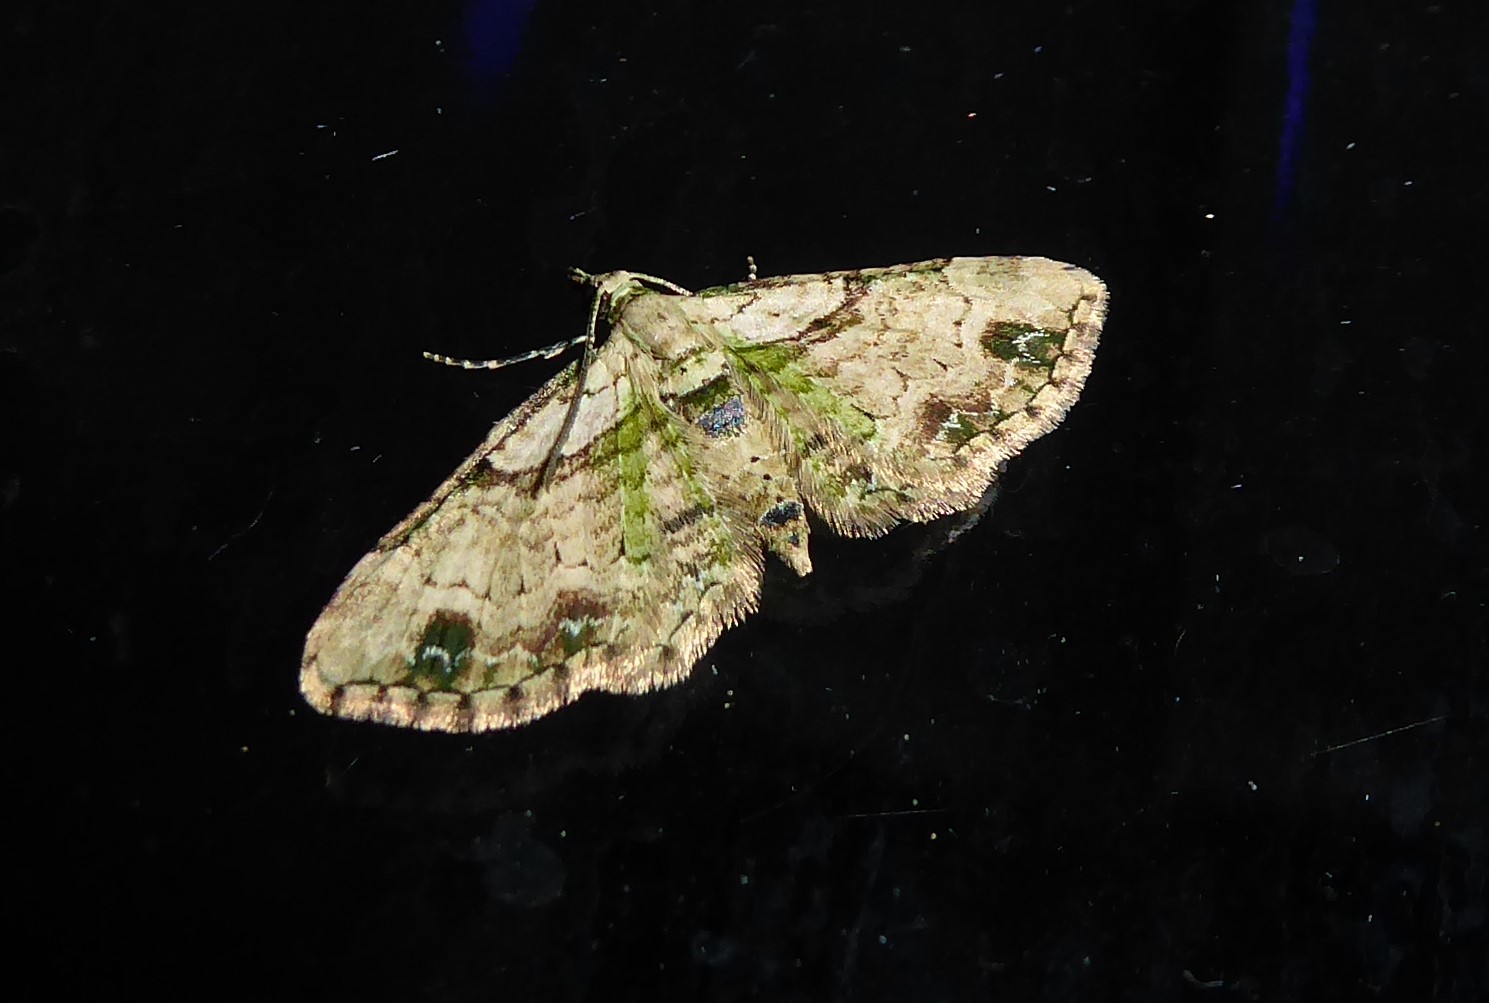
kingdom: Animalia
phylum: Arthropoda
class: Insecta
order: Lepidoptera
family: Geometridae
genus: Chloroclystis
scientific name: Chloroclystis
